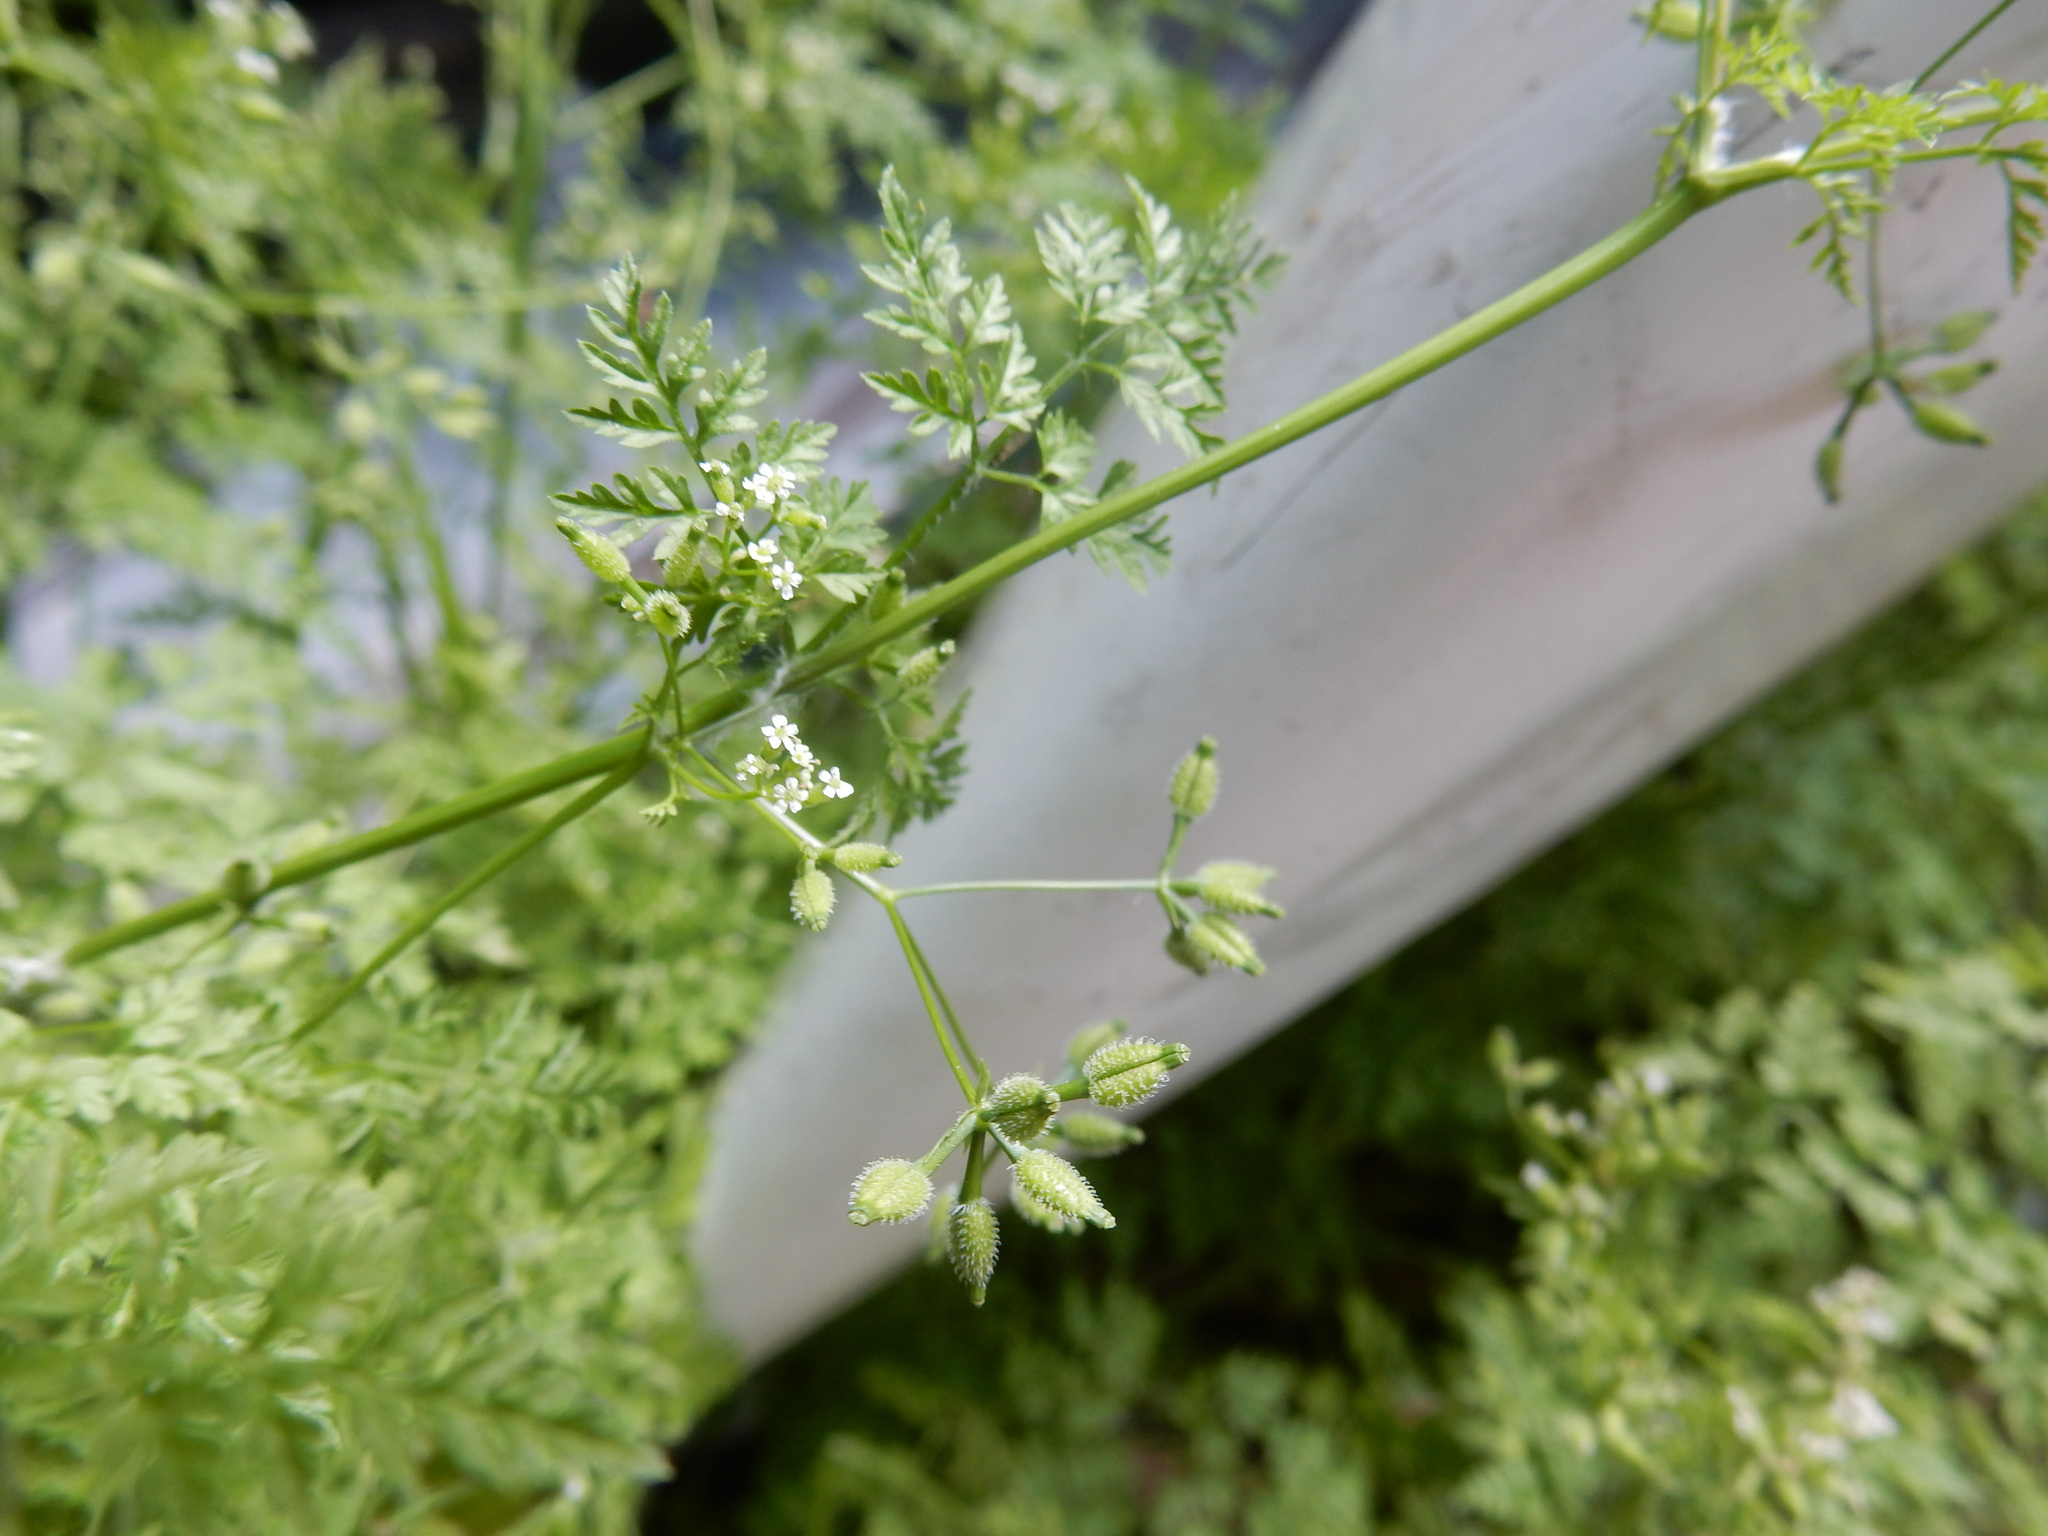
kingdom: Plantae
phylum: Tracheophyta
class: Magnoliopsida
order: Apiales
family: Apiaceae
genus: Anthriscus
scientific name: Anthriscus caucalis
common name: Bur chervil
